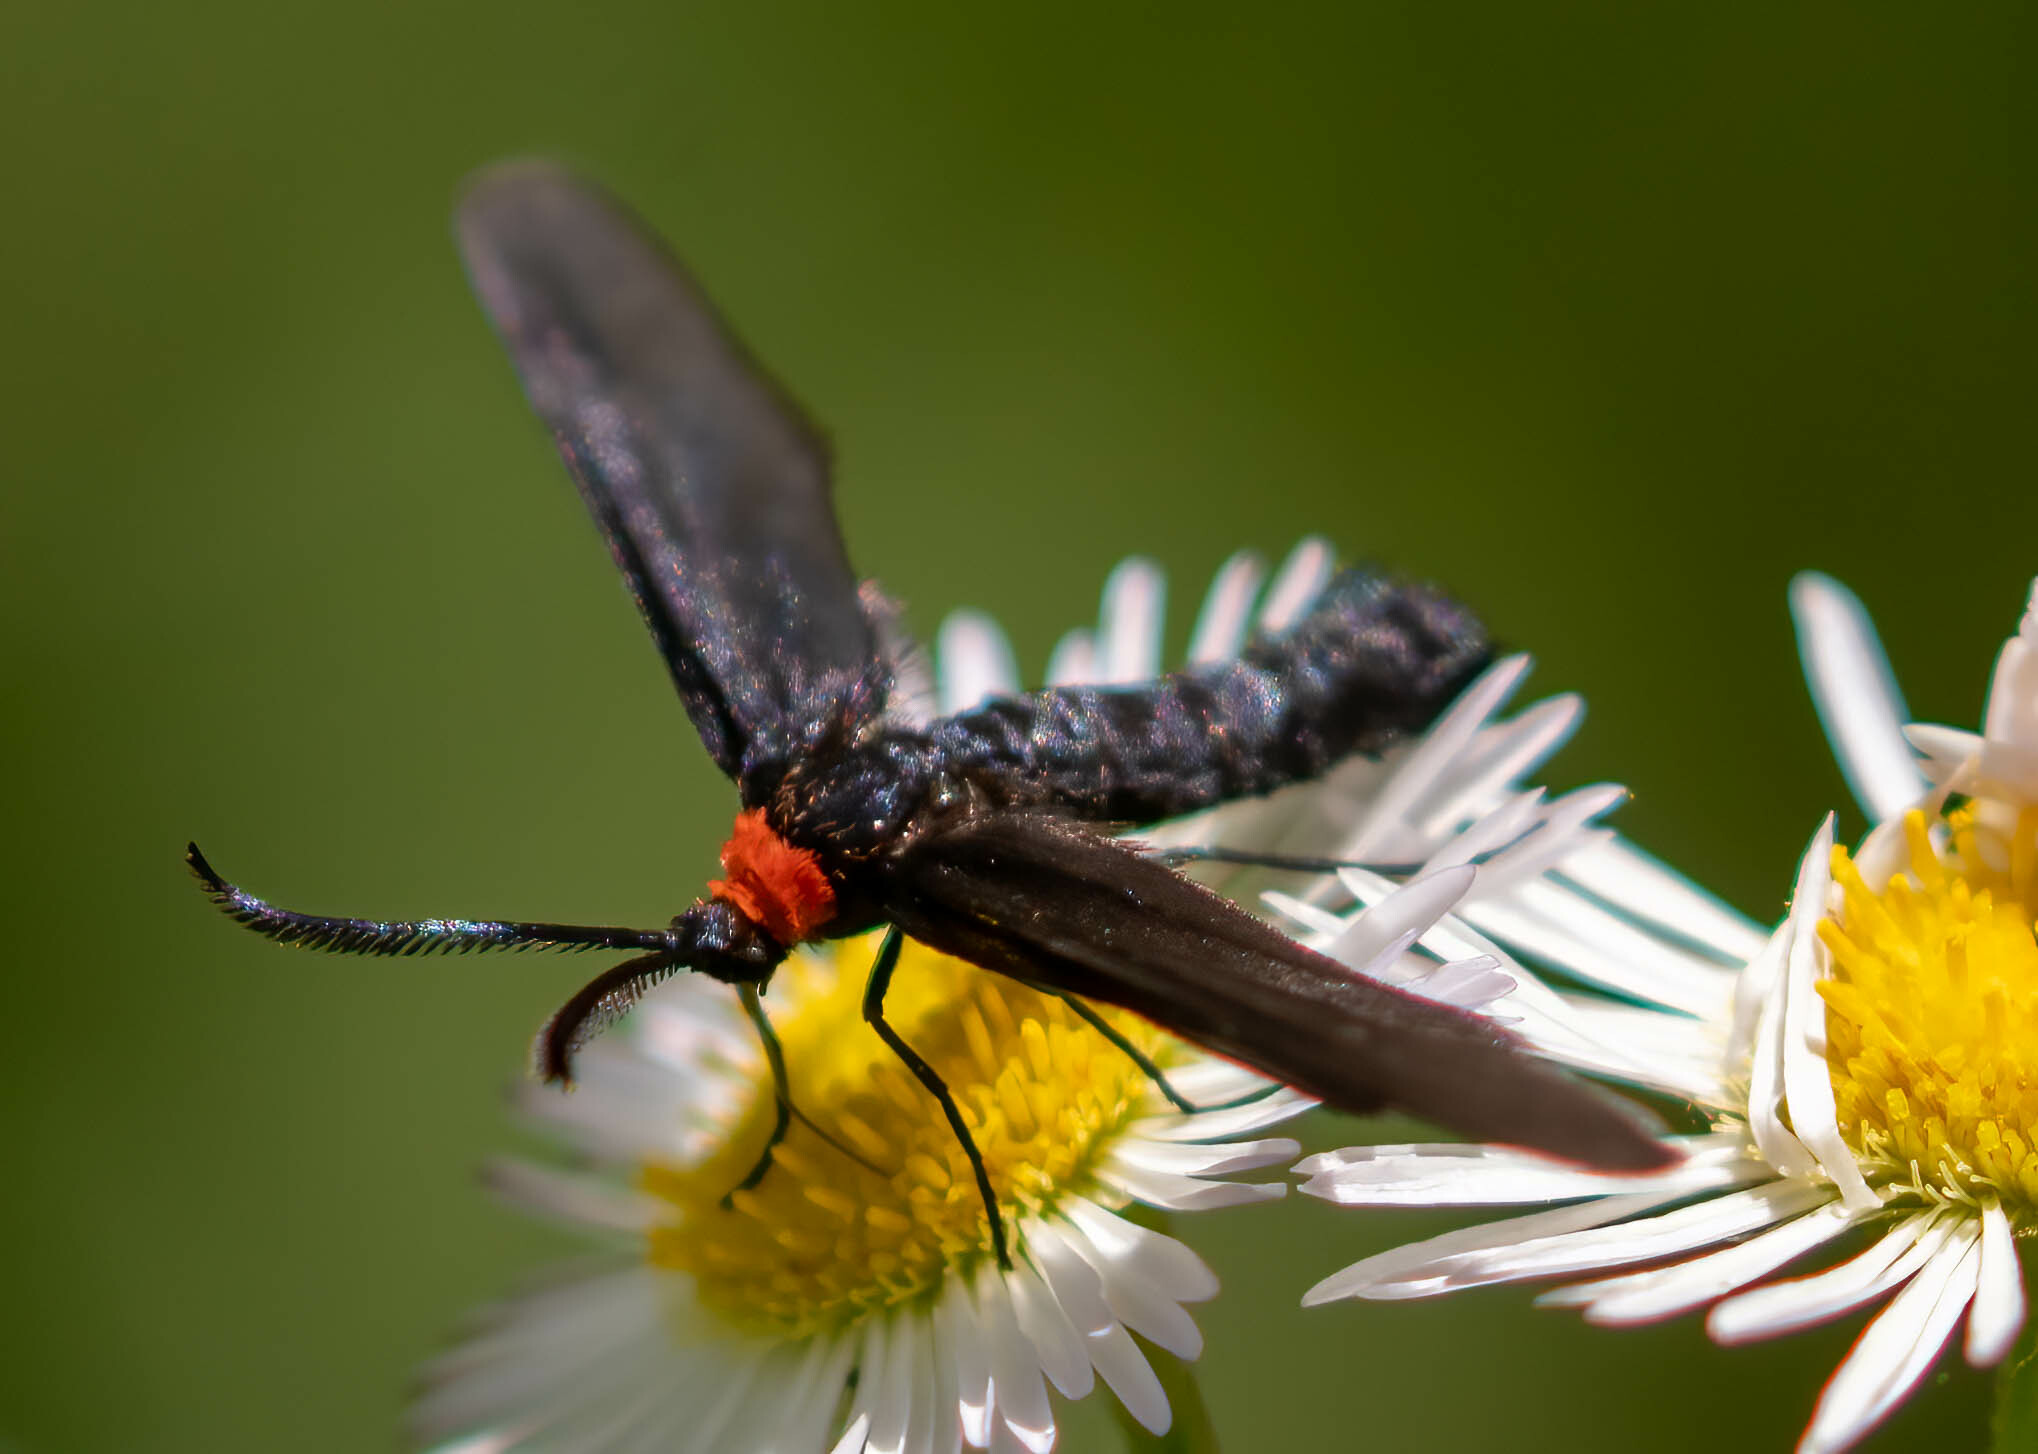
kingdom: Animalia
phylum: Arthropoda
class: Insecta
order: Lepidoptera
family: Zygaenidae
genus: Harrisina
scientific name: Harrisina americana
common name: Grapeleaf skeletonizer moth
